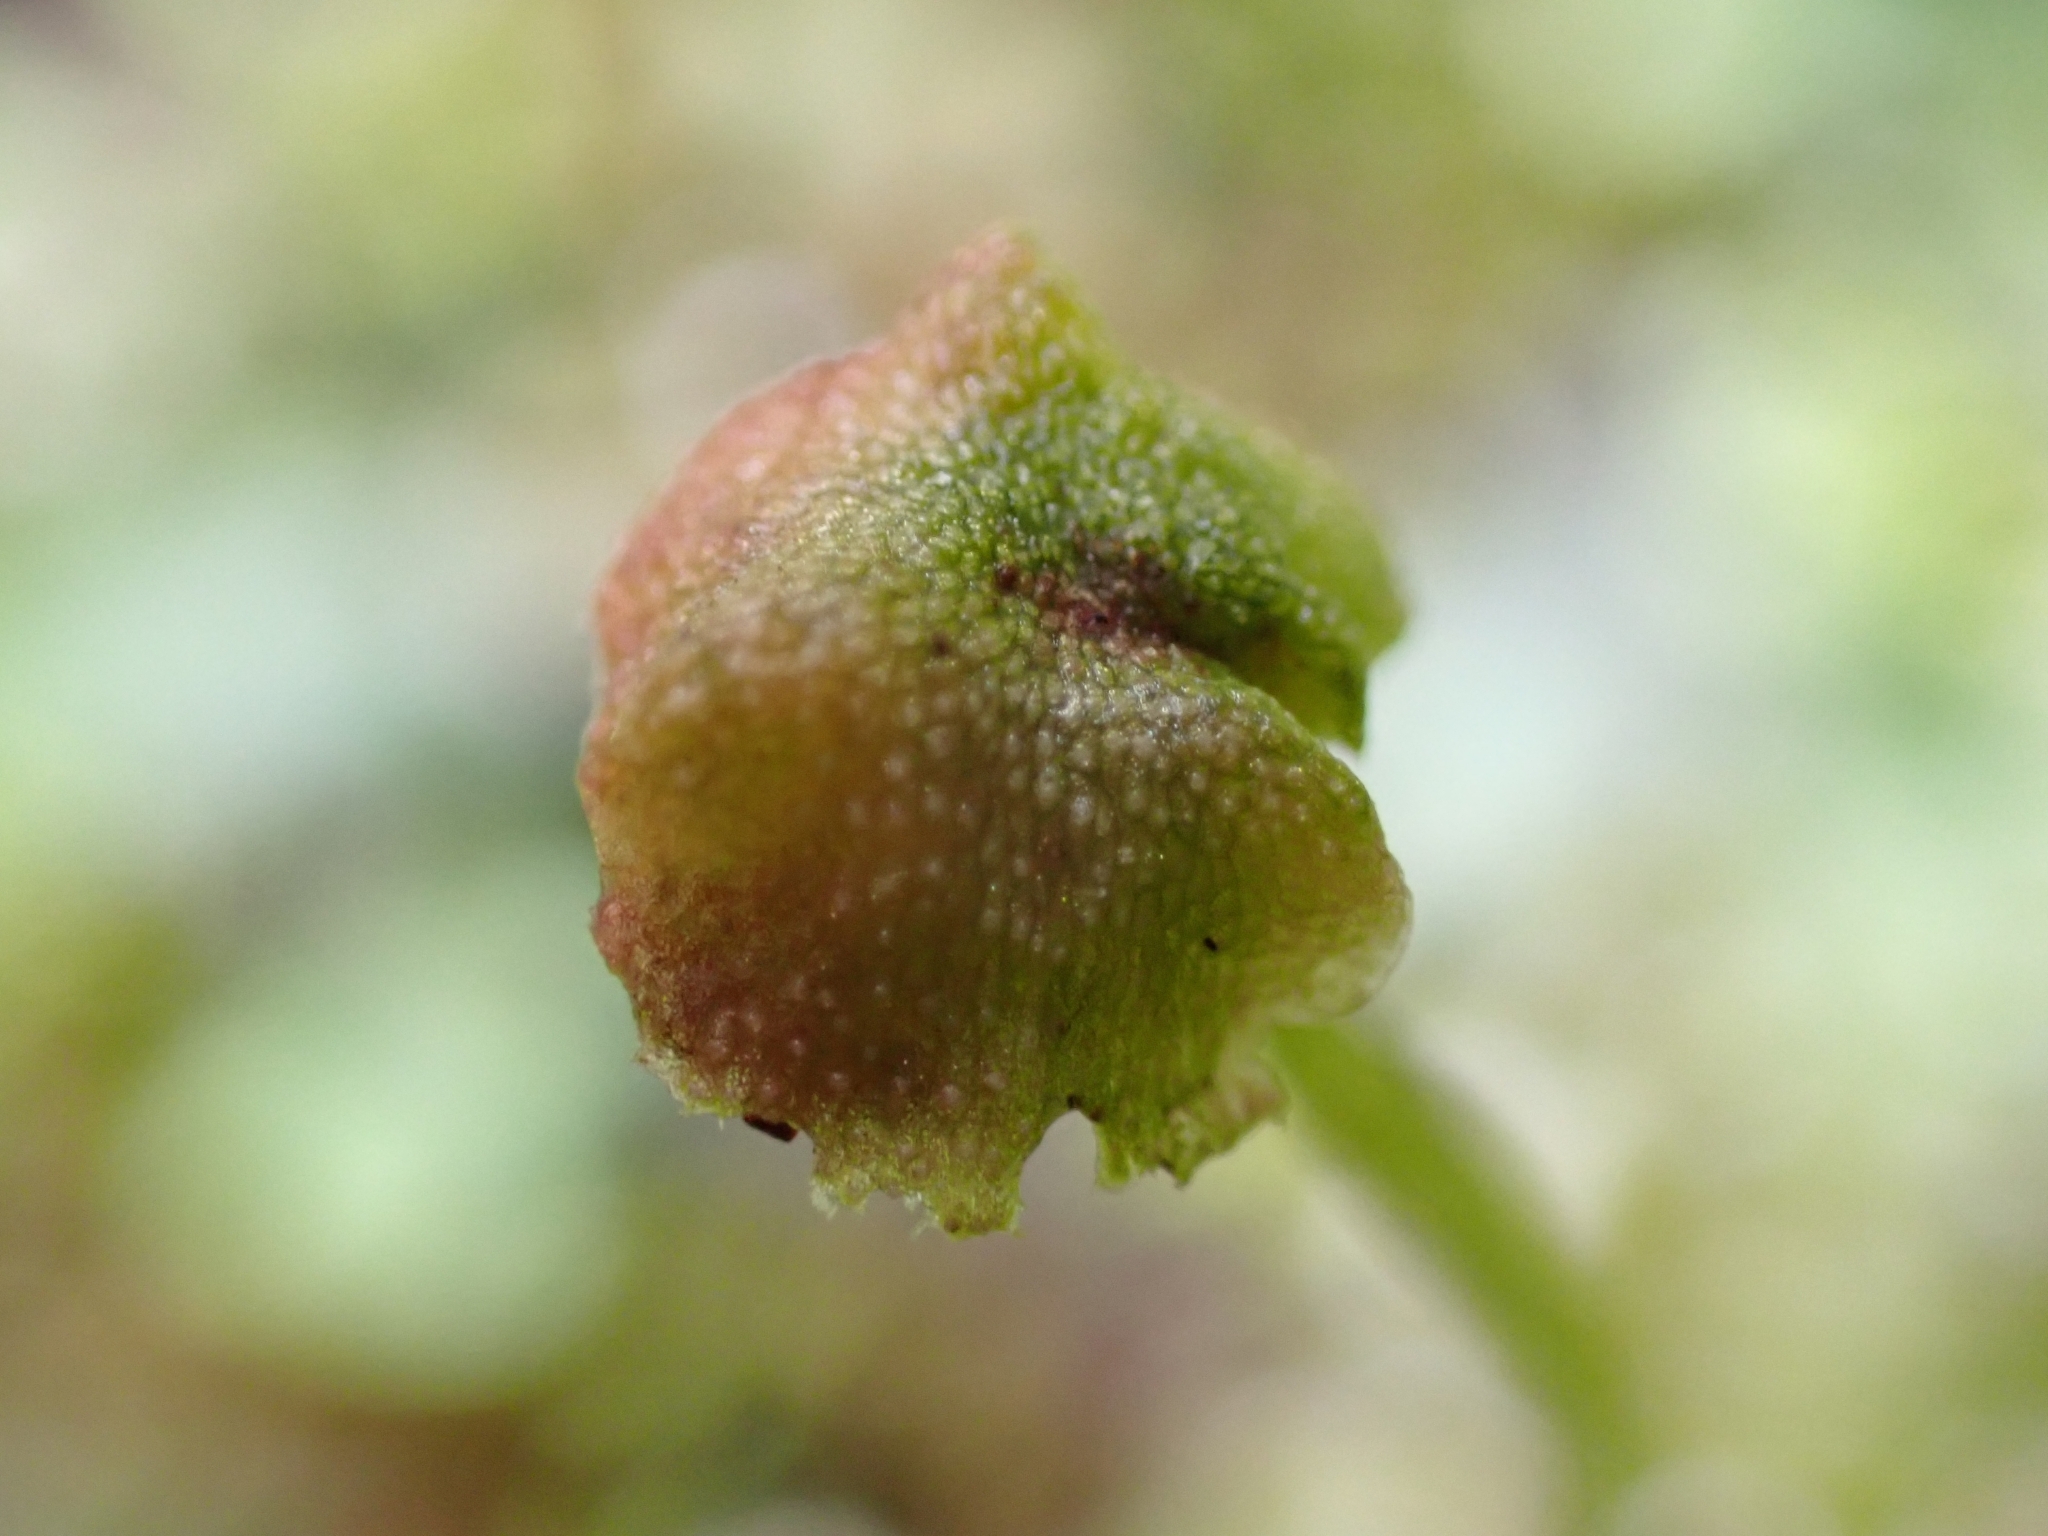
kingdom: Plantae
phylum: Marchantiophyta
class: Marchantiopsida
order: Marchantiales
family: Marchantiaceae
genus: Marchantia
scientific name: Marchantia quadrata
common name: Narrow mushroom-headed liverwort
